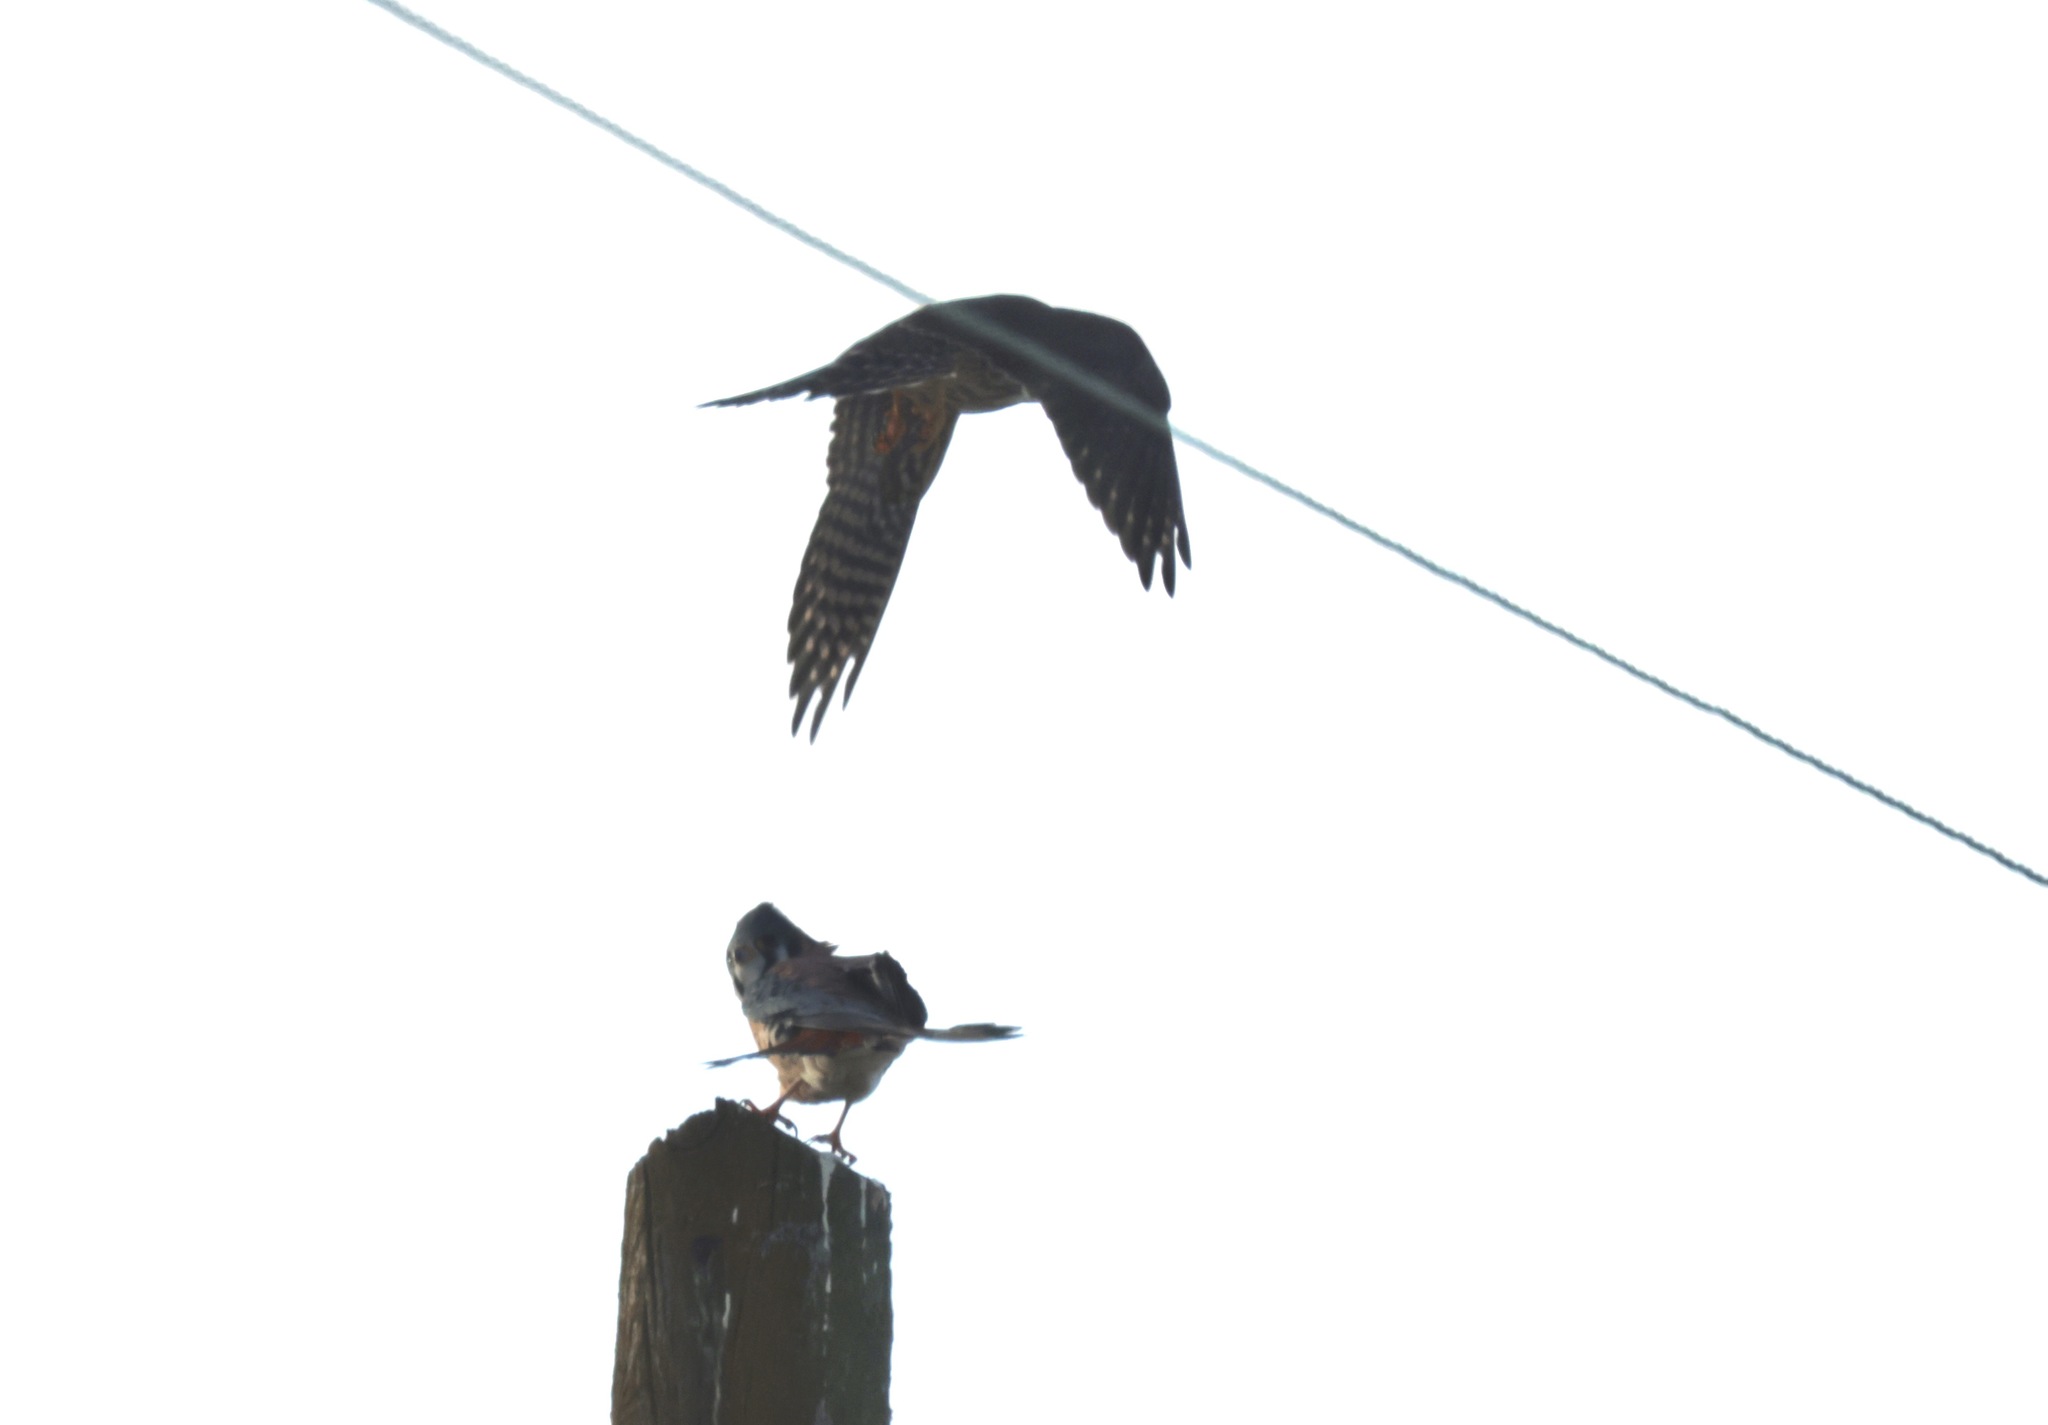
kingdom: Animalia
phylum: Chordata
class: Aves
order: Falconiformes
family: Falconidae
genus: Falco
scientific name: Falco sparverius
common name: American kestrel
